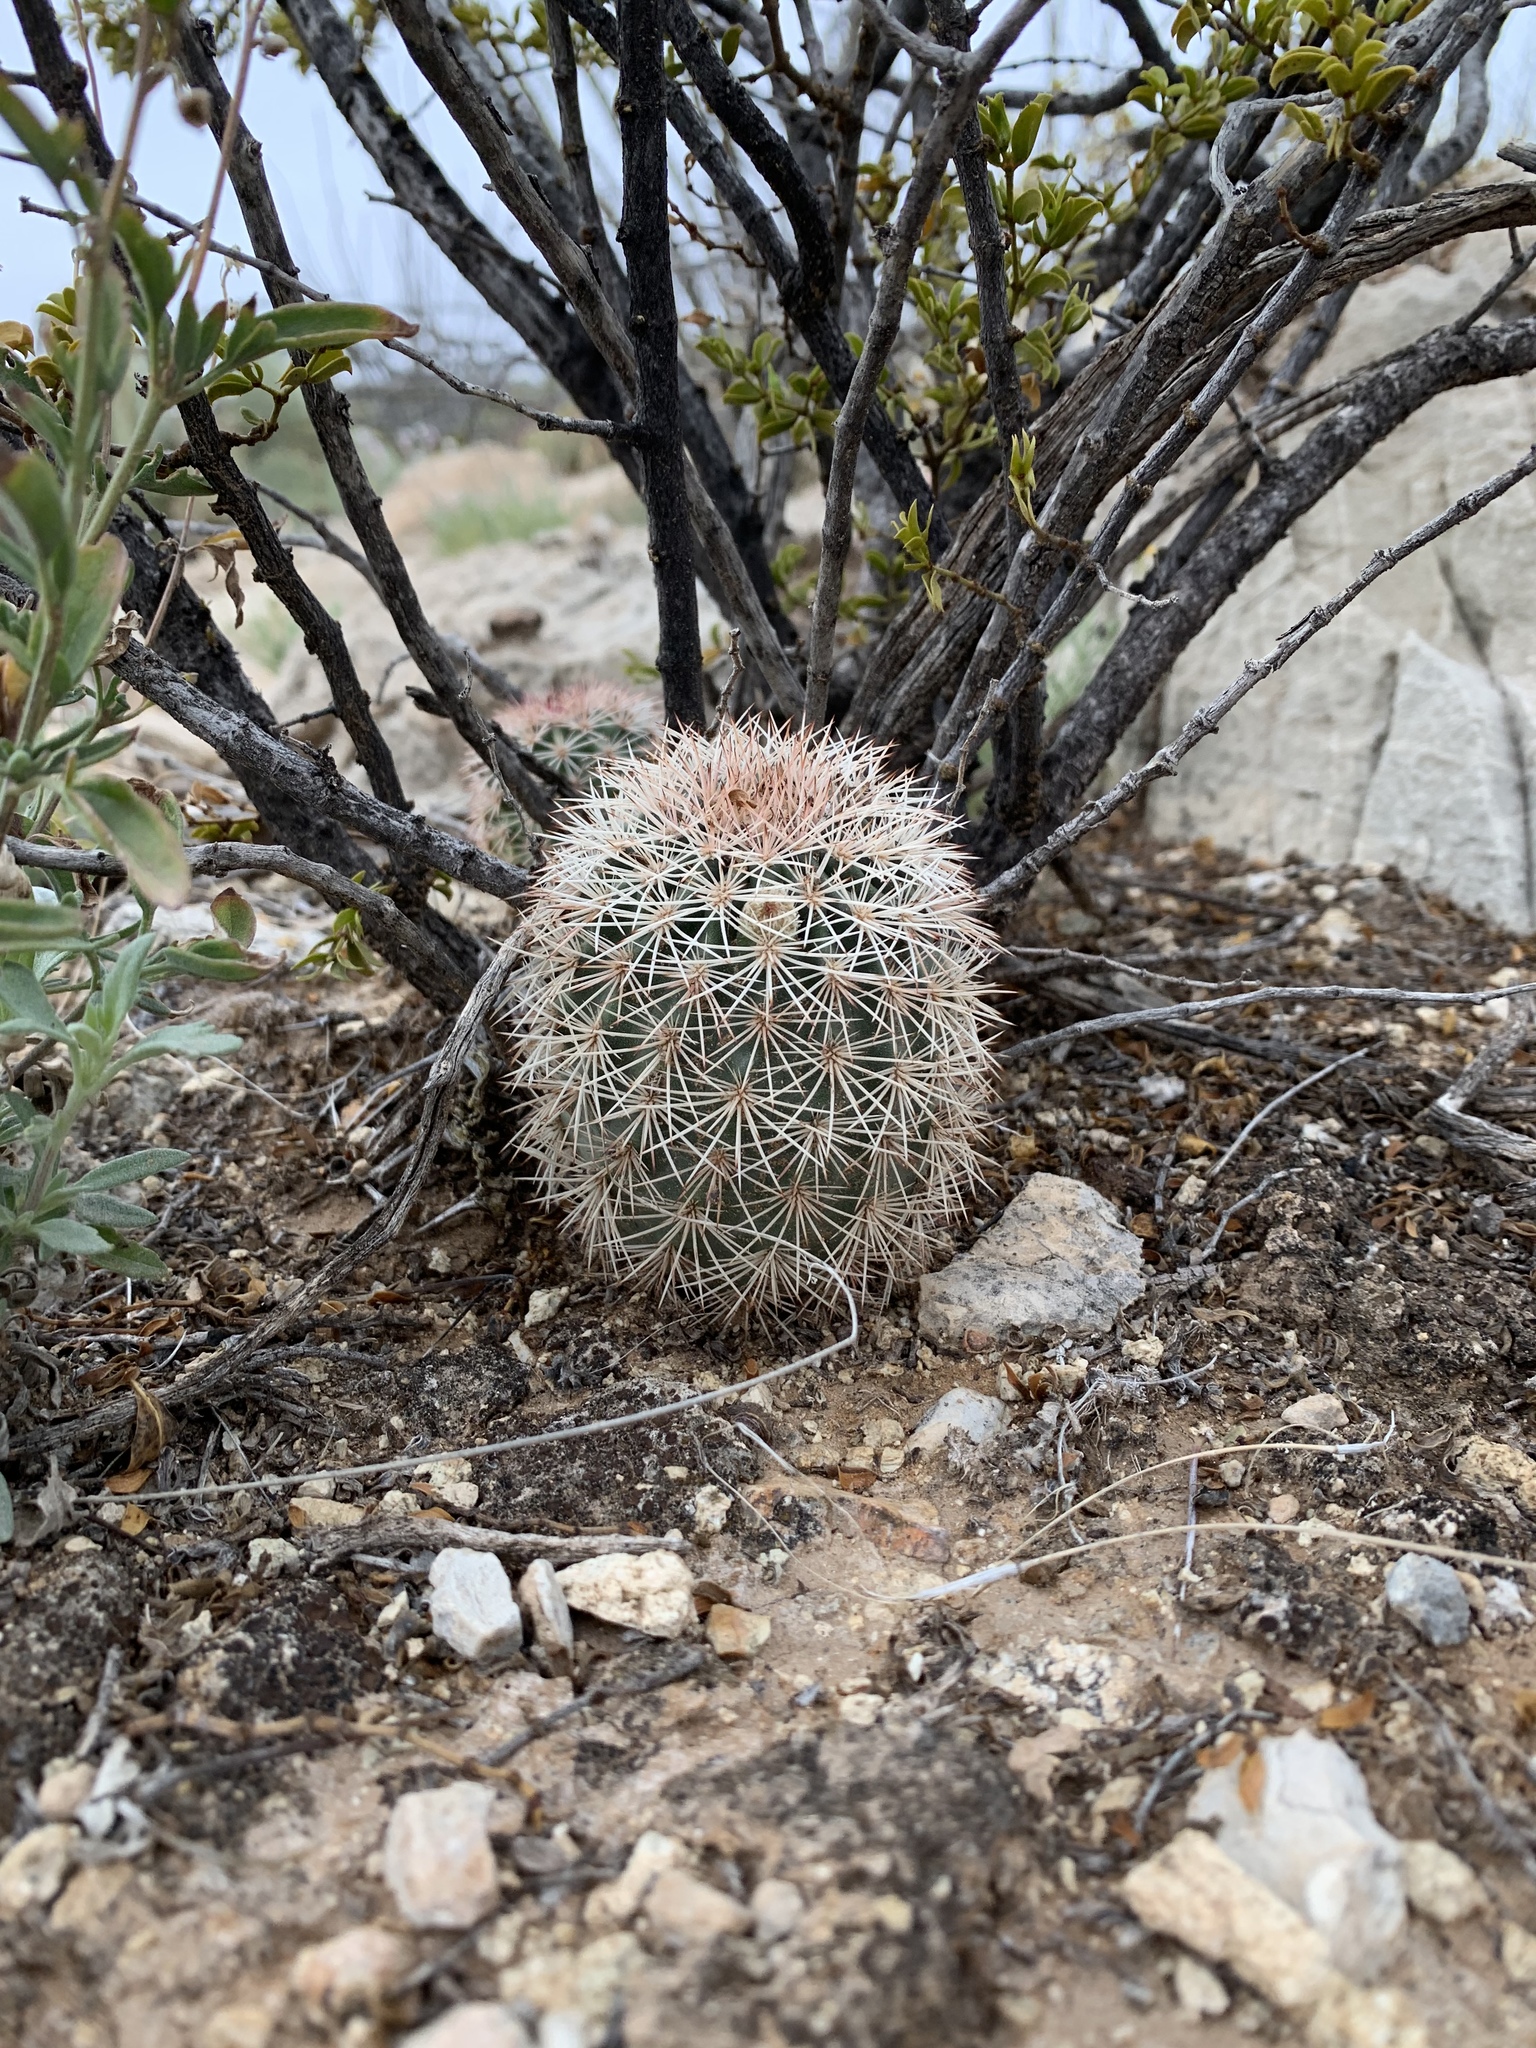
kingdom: Plantae
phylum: Tracheophyta
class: Magnoliopsida
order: Caryophyllales
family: Cactaceae
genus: Echinocereus
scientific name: Echinocereus dasyacanthus
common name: Spiny hedgehog cactus
